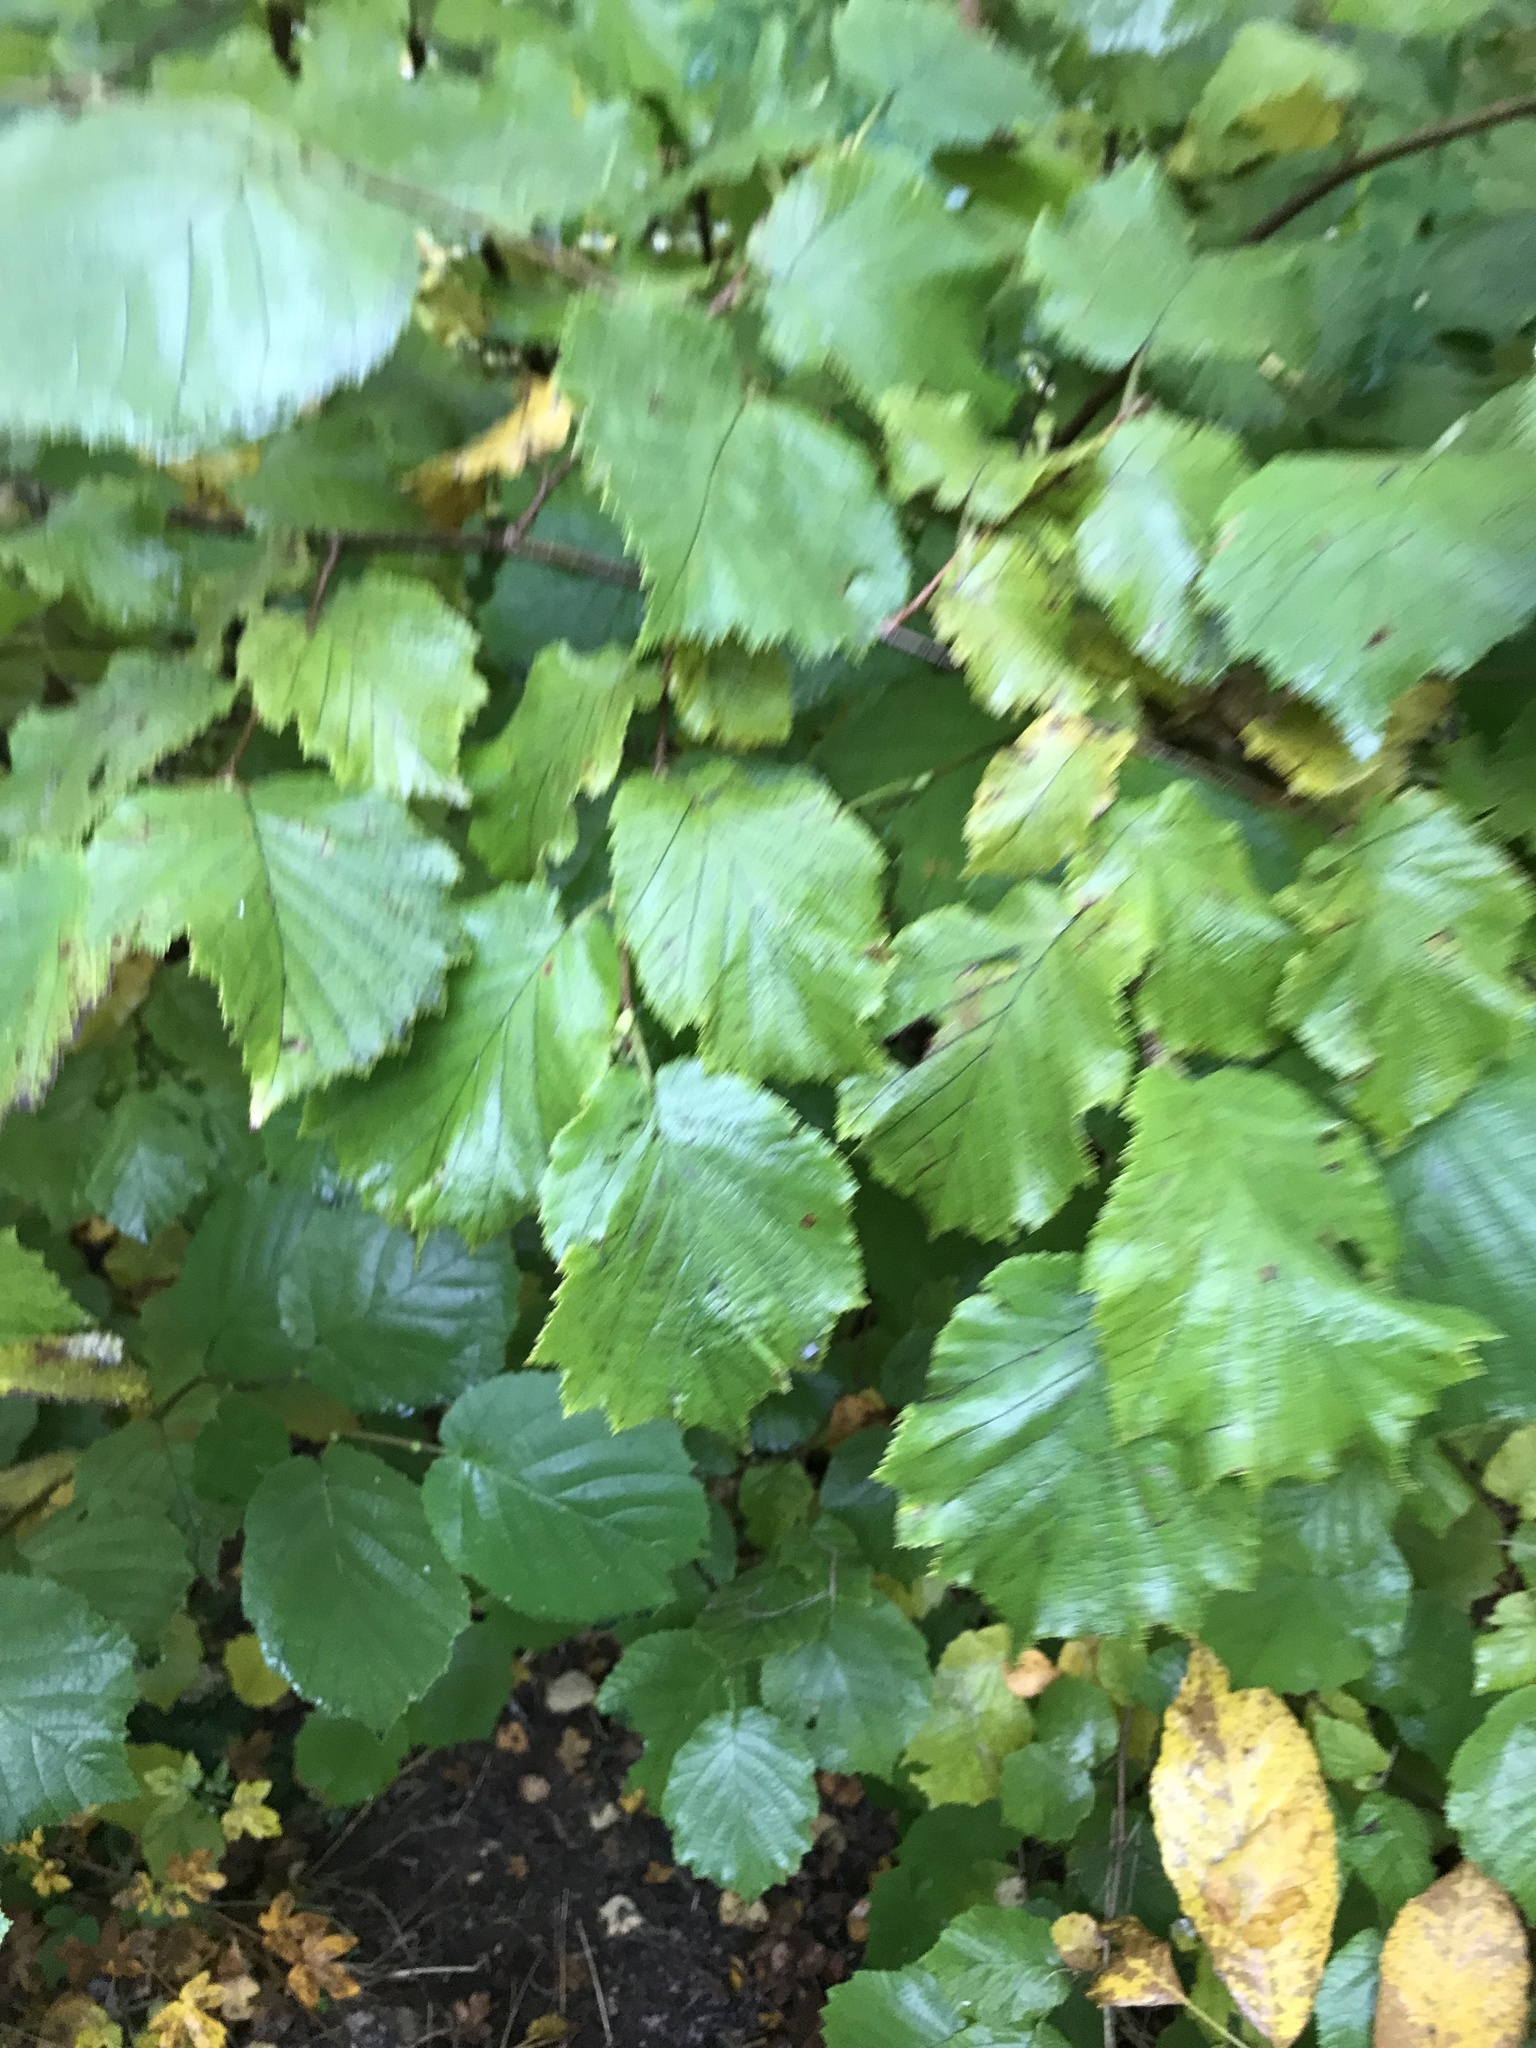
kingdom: Plantae
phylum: Tracheophyta
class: Magnoliopsida
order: Fagales
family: Betulaceae
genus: Corylus
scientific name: Corylus avellana
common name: European hazel
